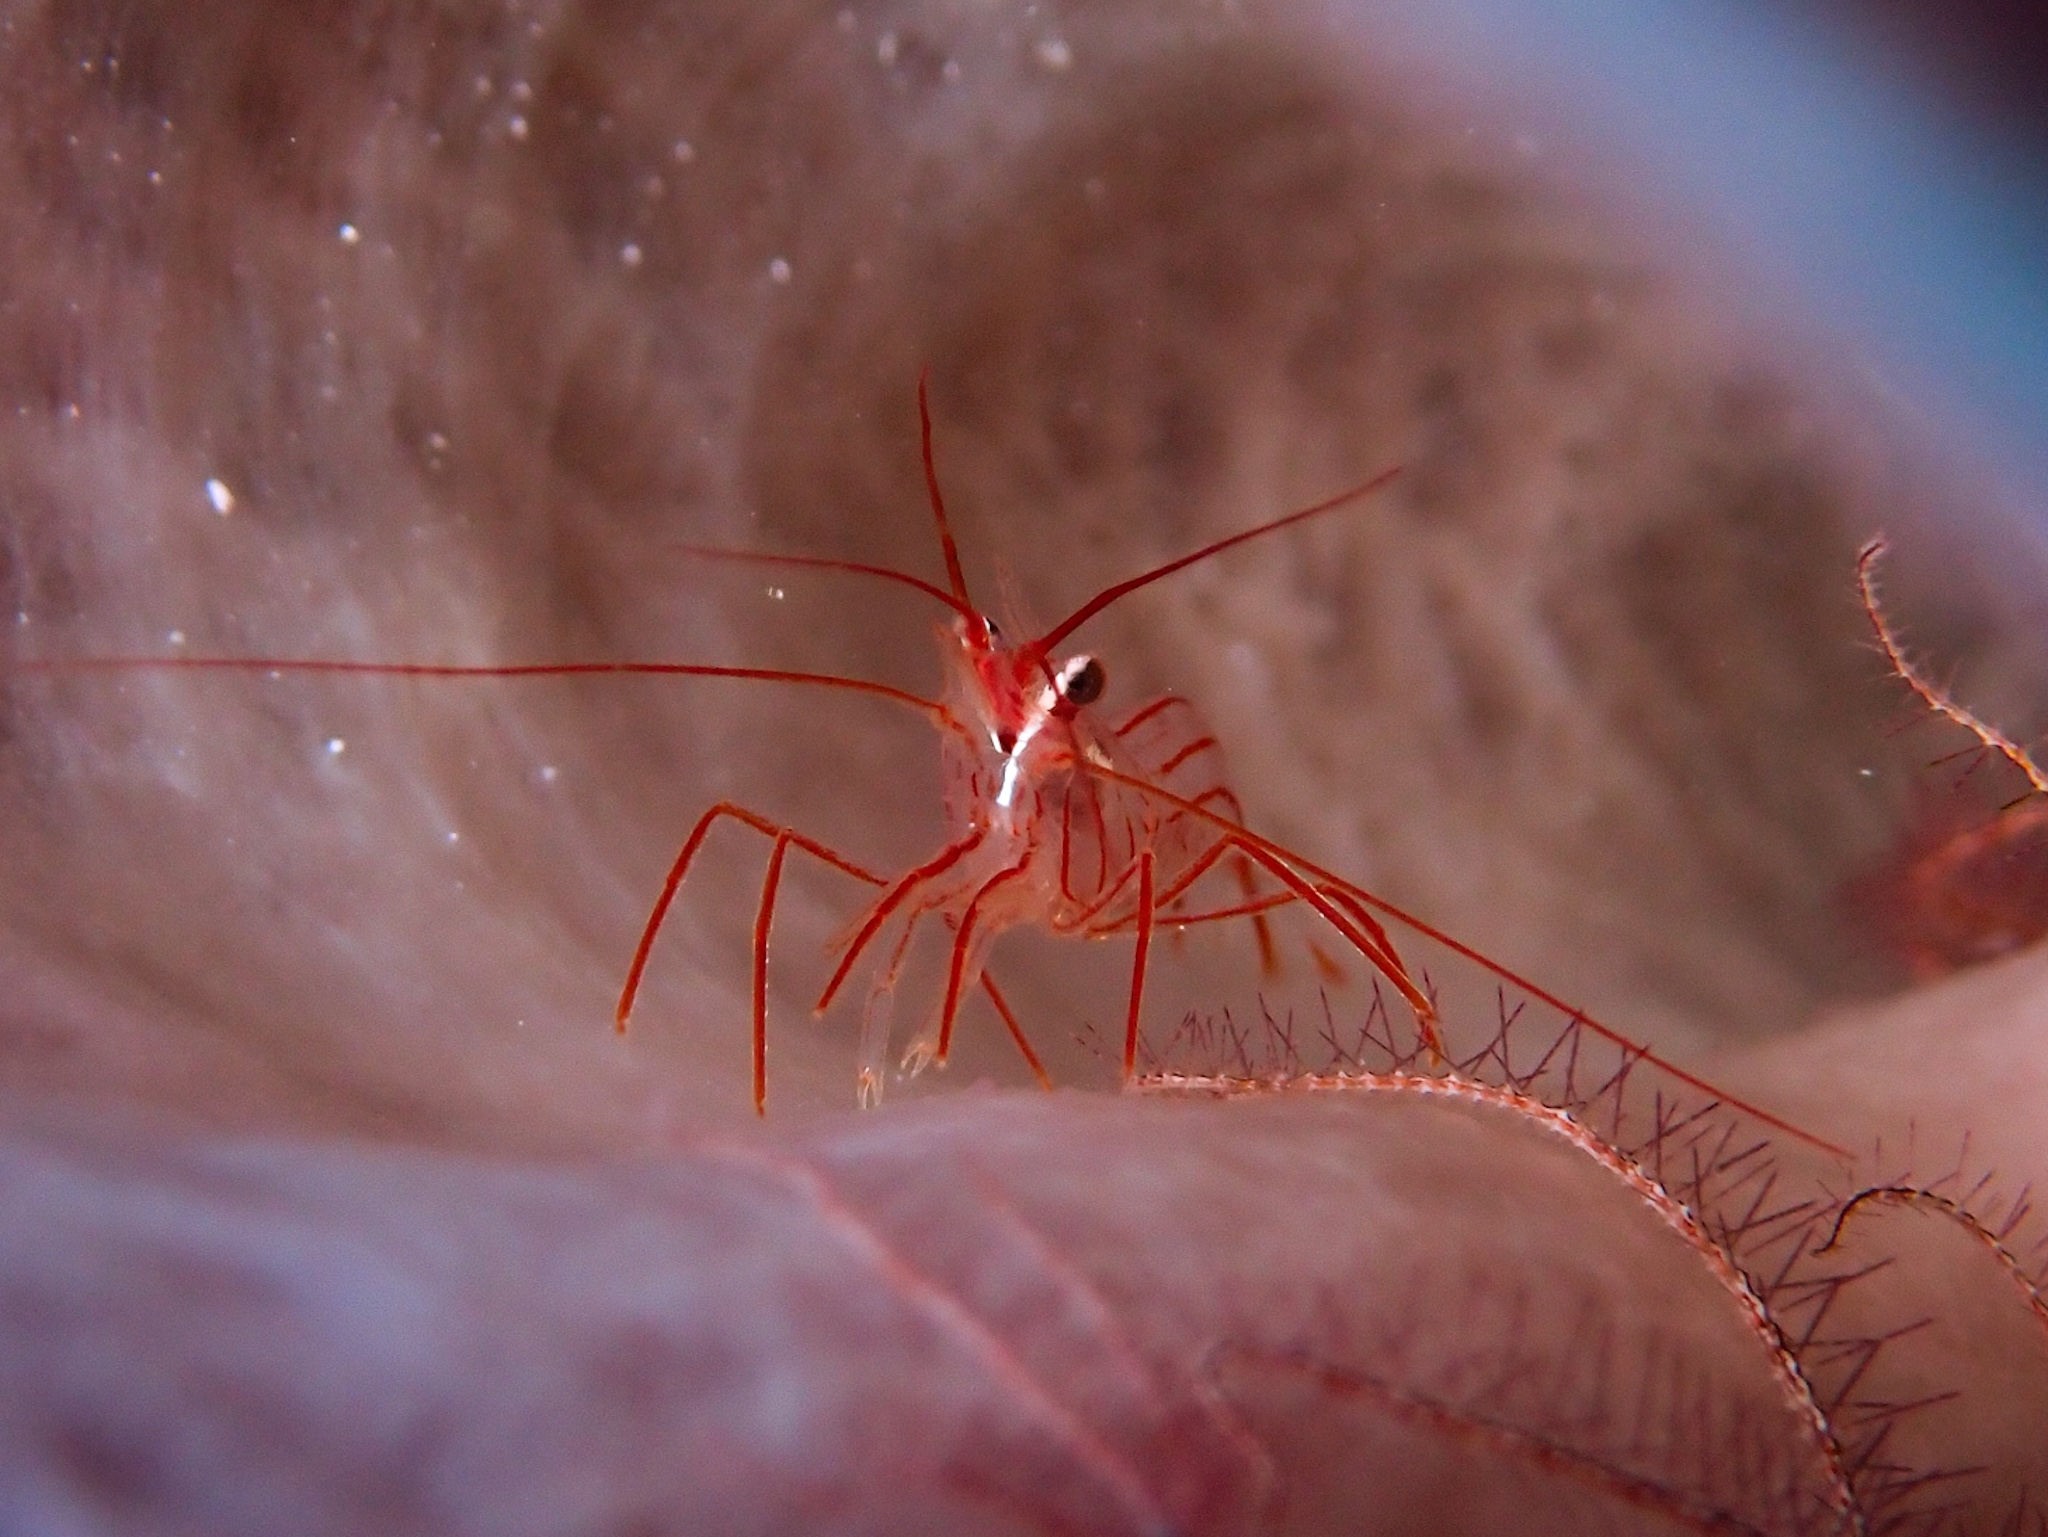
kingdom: Animalia
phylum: Arthropoda
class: Malacostraca
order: Decapoda
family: Lysmatidae
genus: Lysmata
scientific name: Lysmata pederseni
